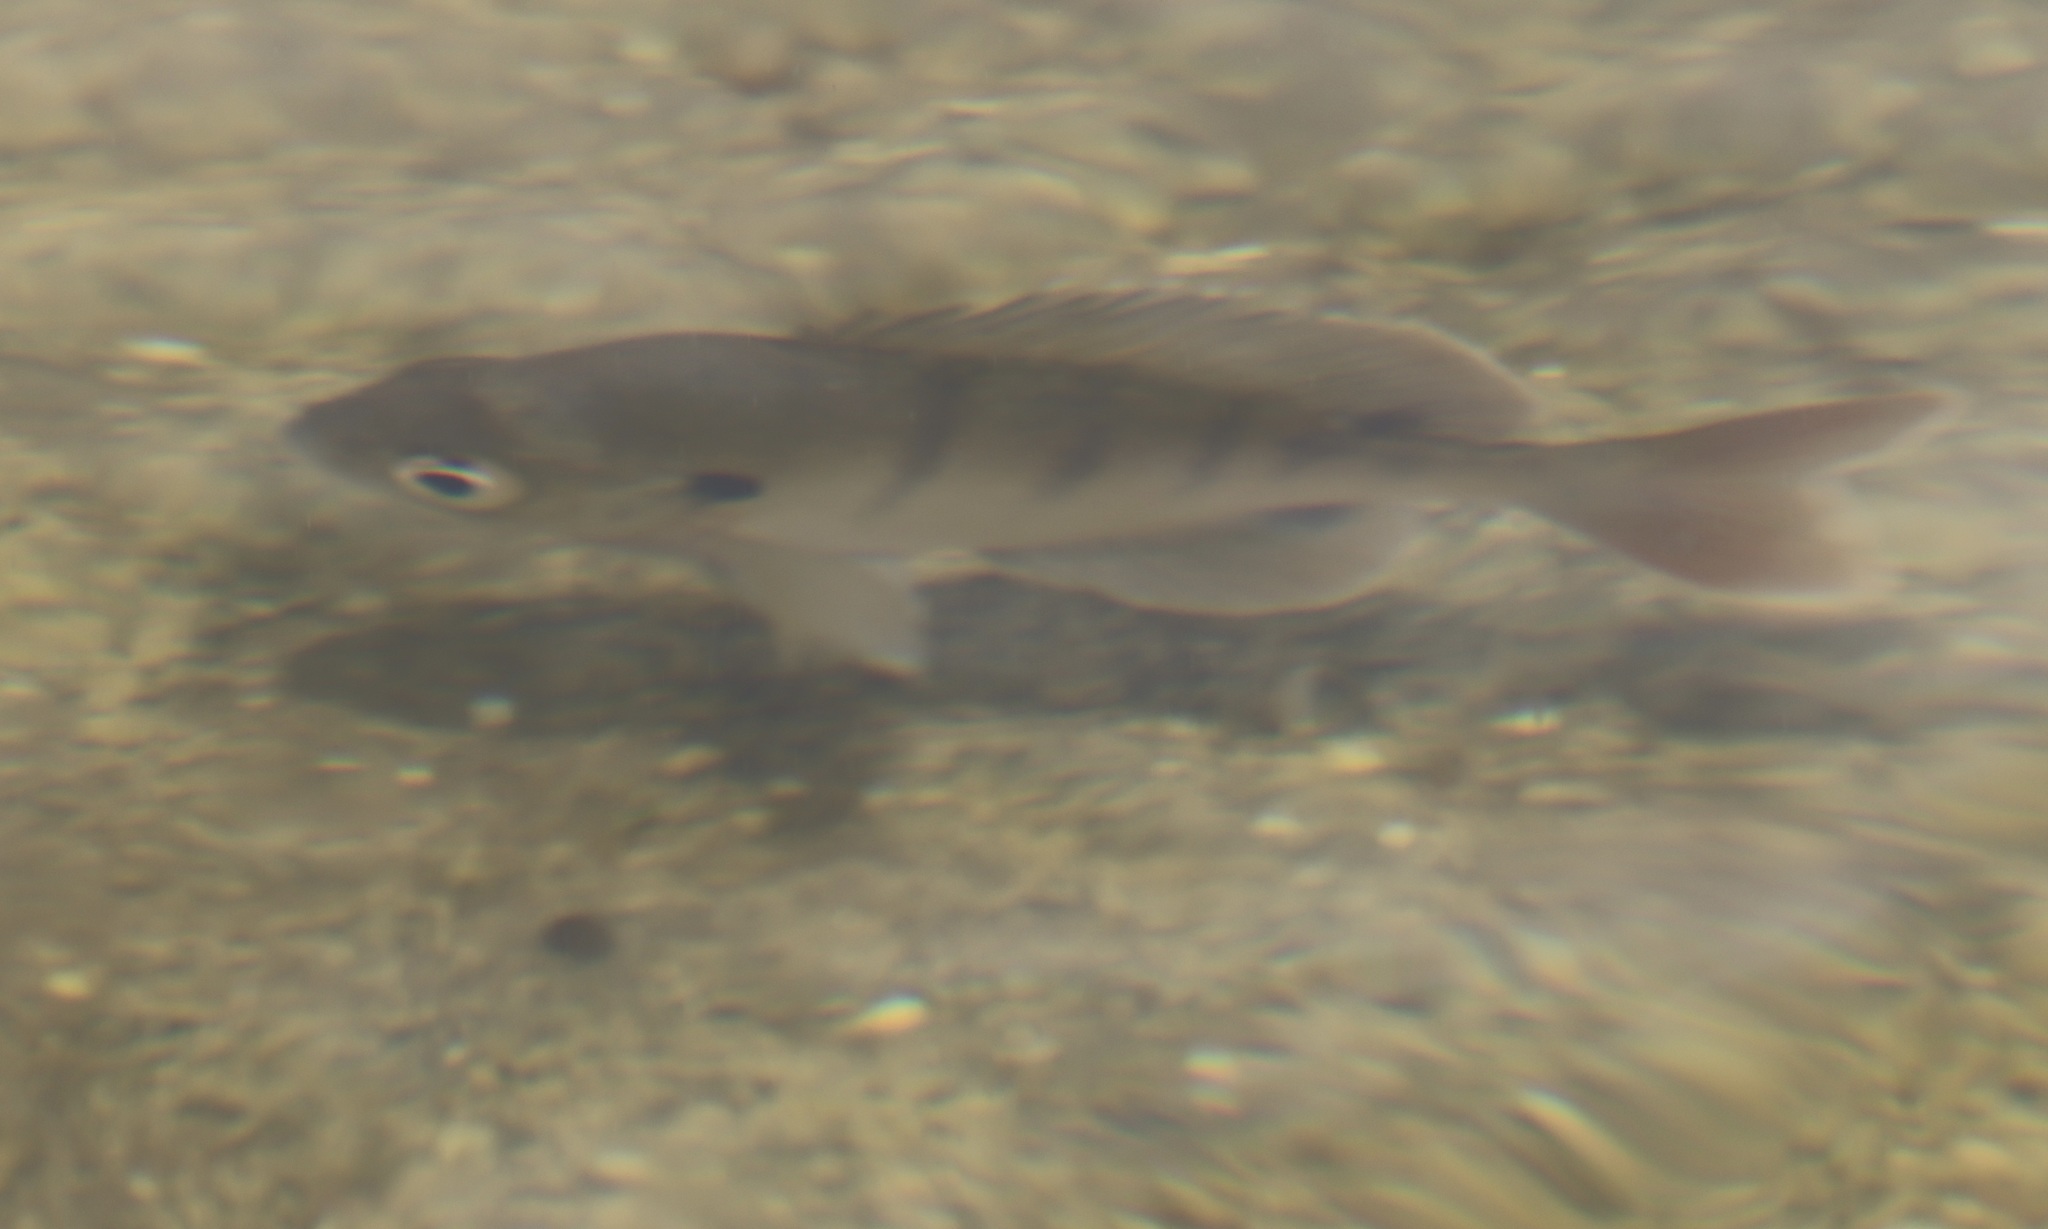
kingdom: Animalia
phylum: Chordata
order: Perciformes
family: Centrarchidae
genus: Lepomis
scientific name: Lepomis macrochirus
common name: Bluegill
